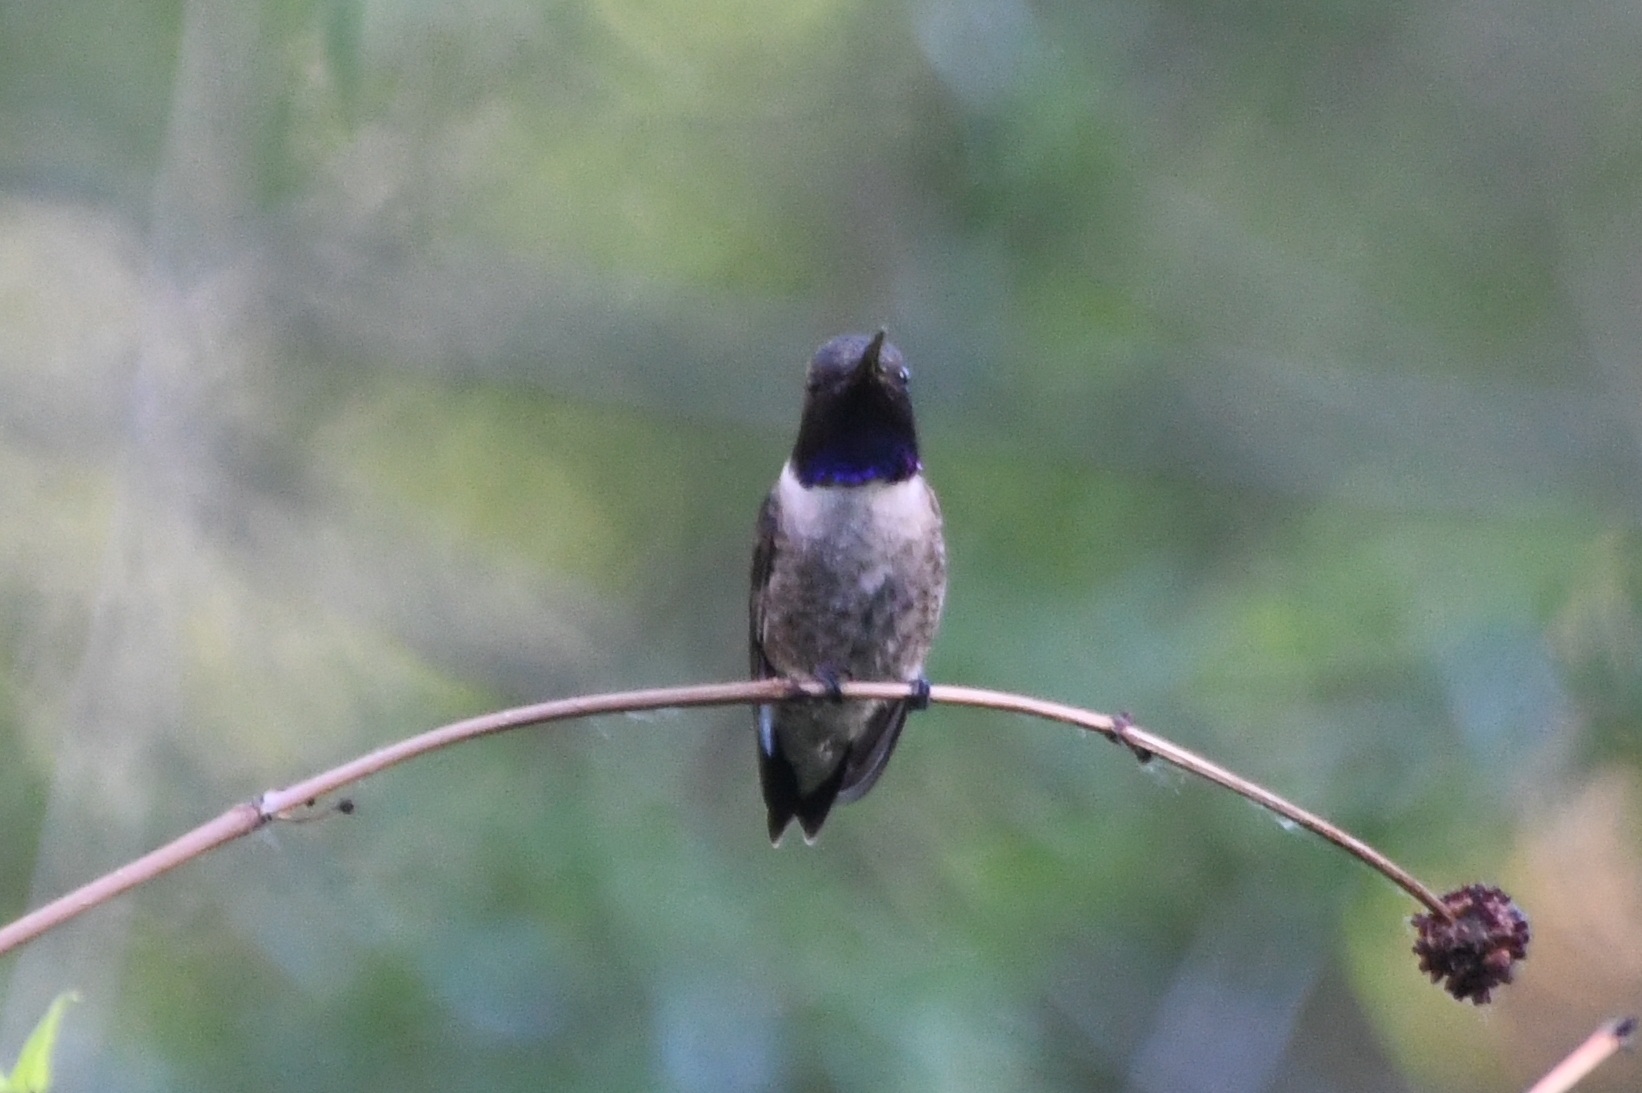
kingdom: Animalia
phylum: Chordata
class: Aves
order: Apodiformes
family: Trochilidae
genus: Archilochus
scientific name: Archilochus alexandri
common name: Black-chinned hummingbird
